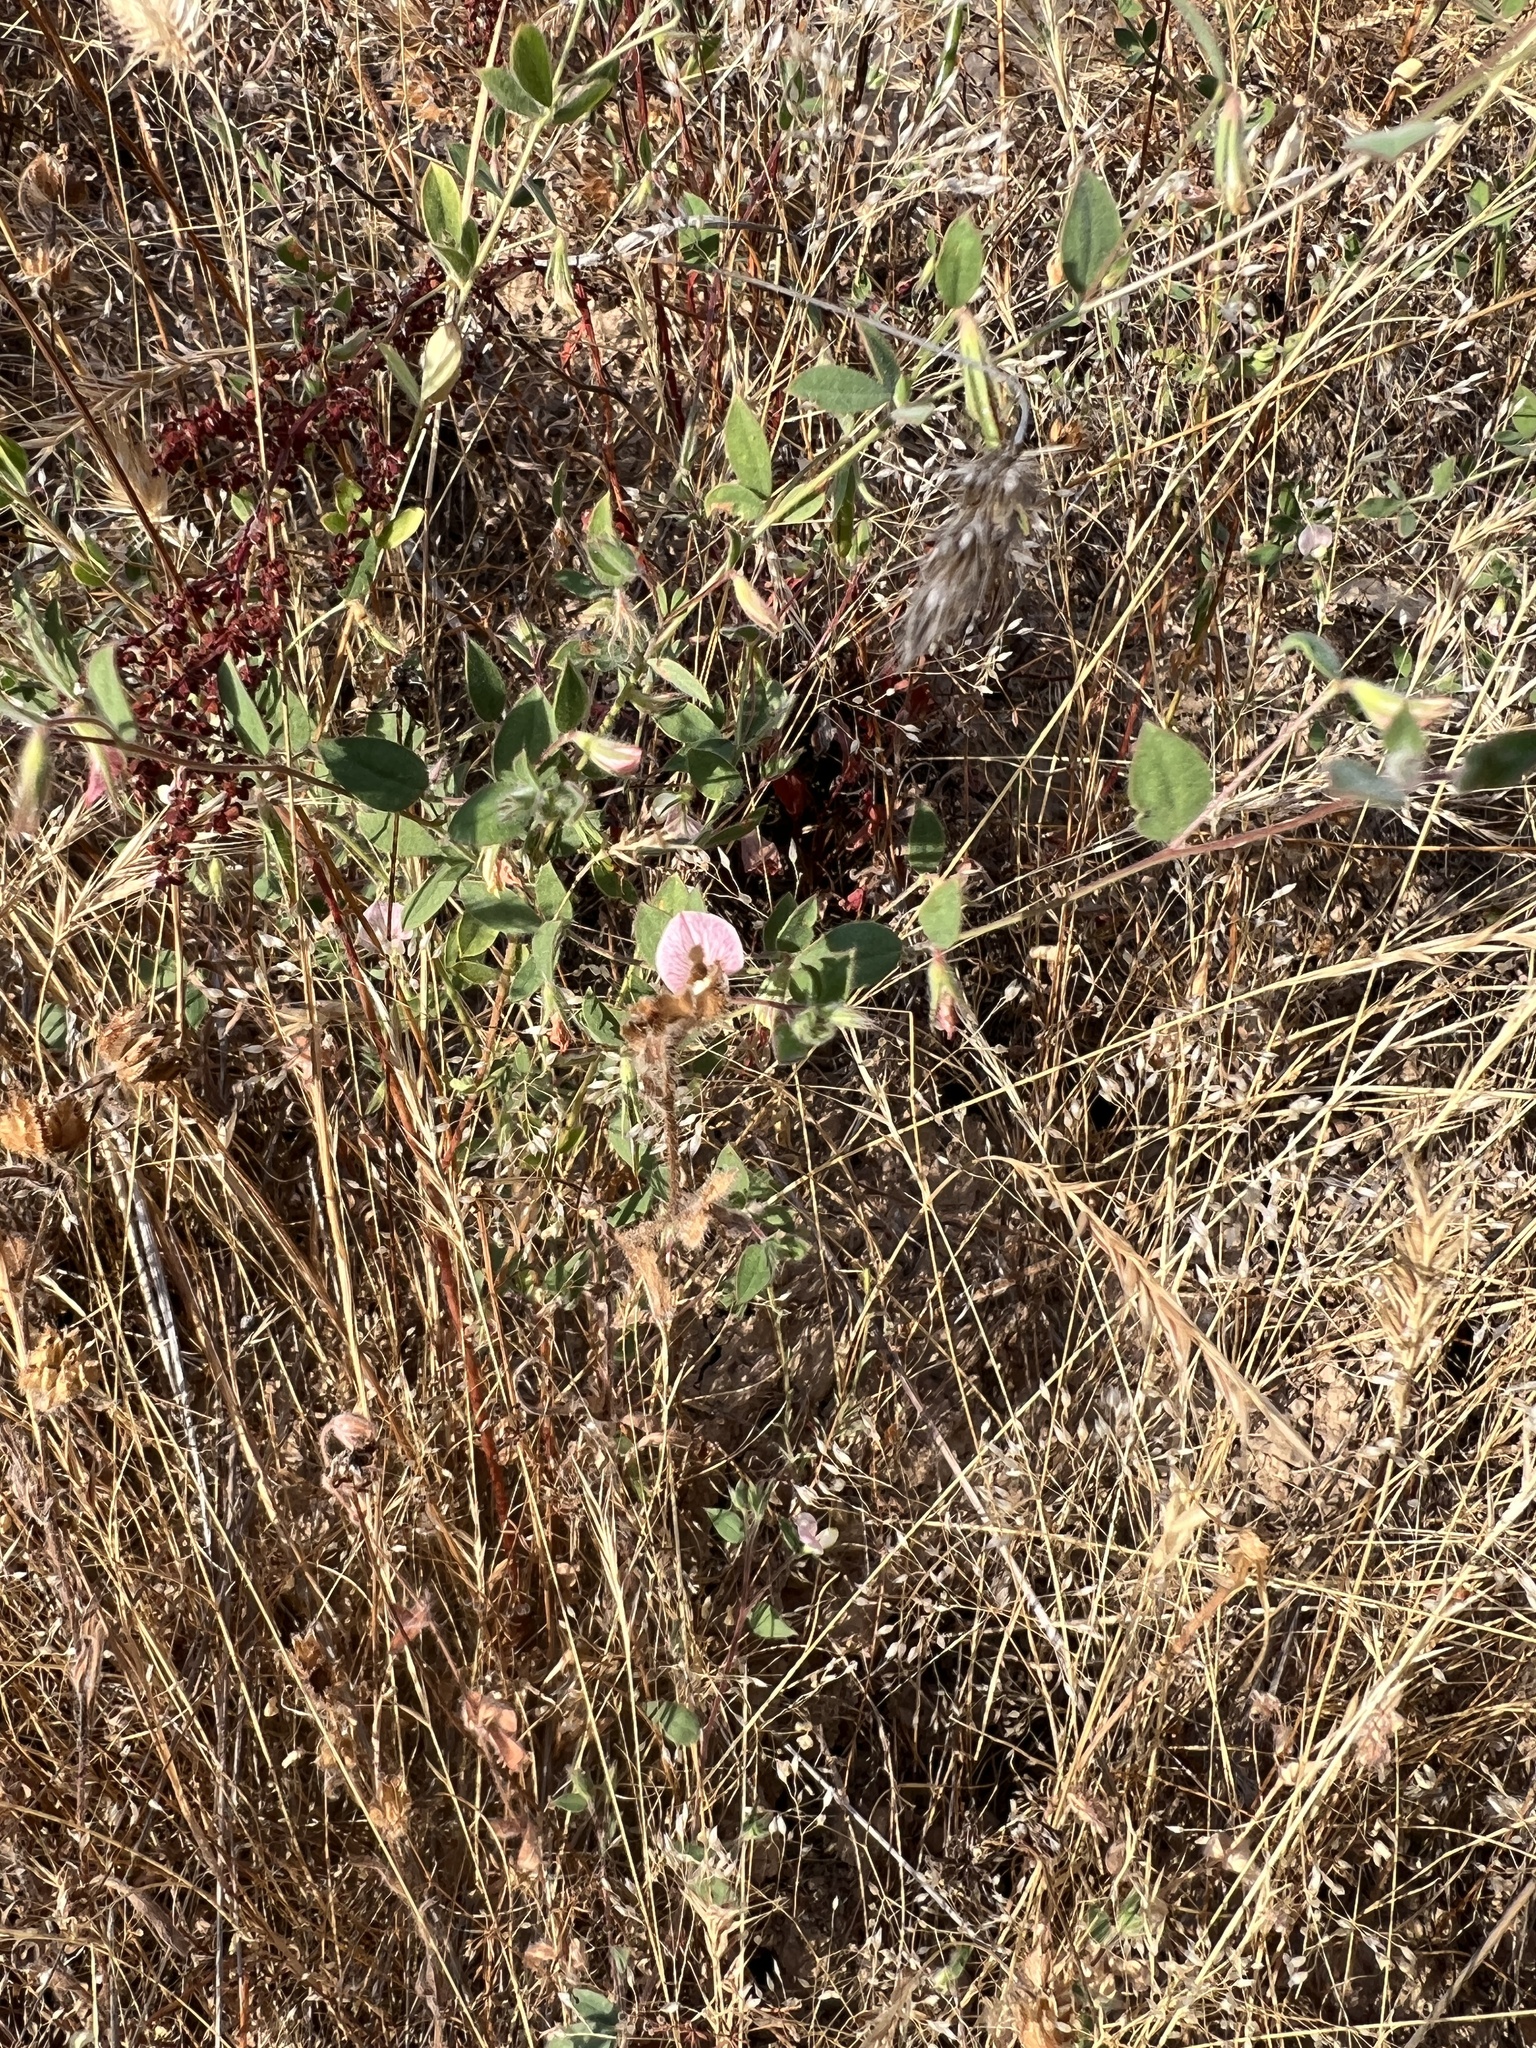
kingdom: Plantae
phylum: Tracheophyta
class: Magnoliopsida
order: Fabales
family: Fabaceae
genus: Acmispon
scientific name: Acmispon americanus
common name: American bird's-foot trefoil
